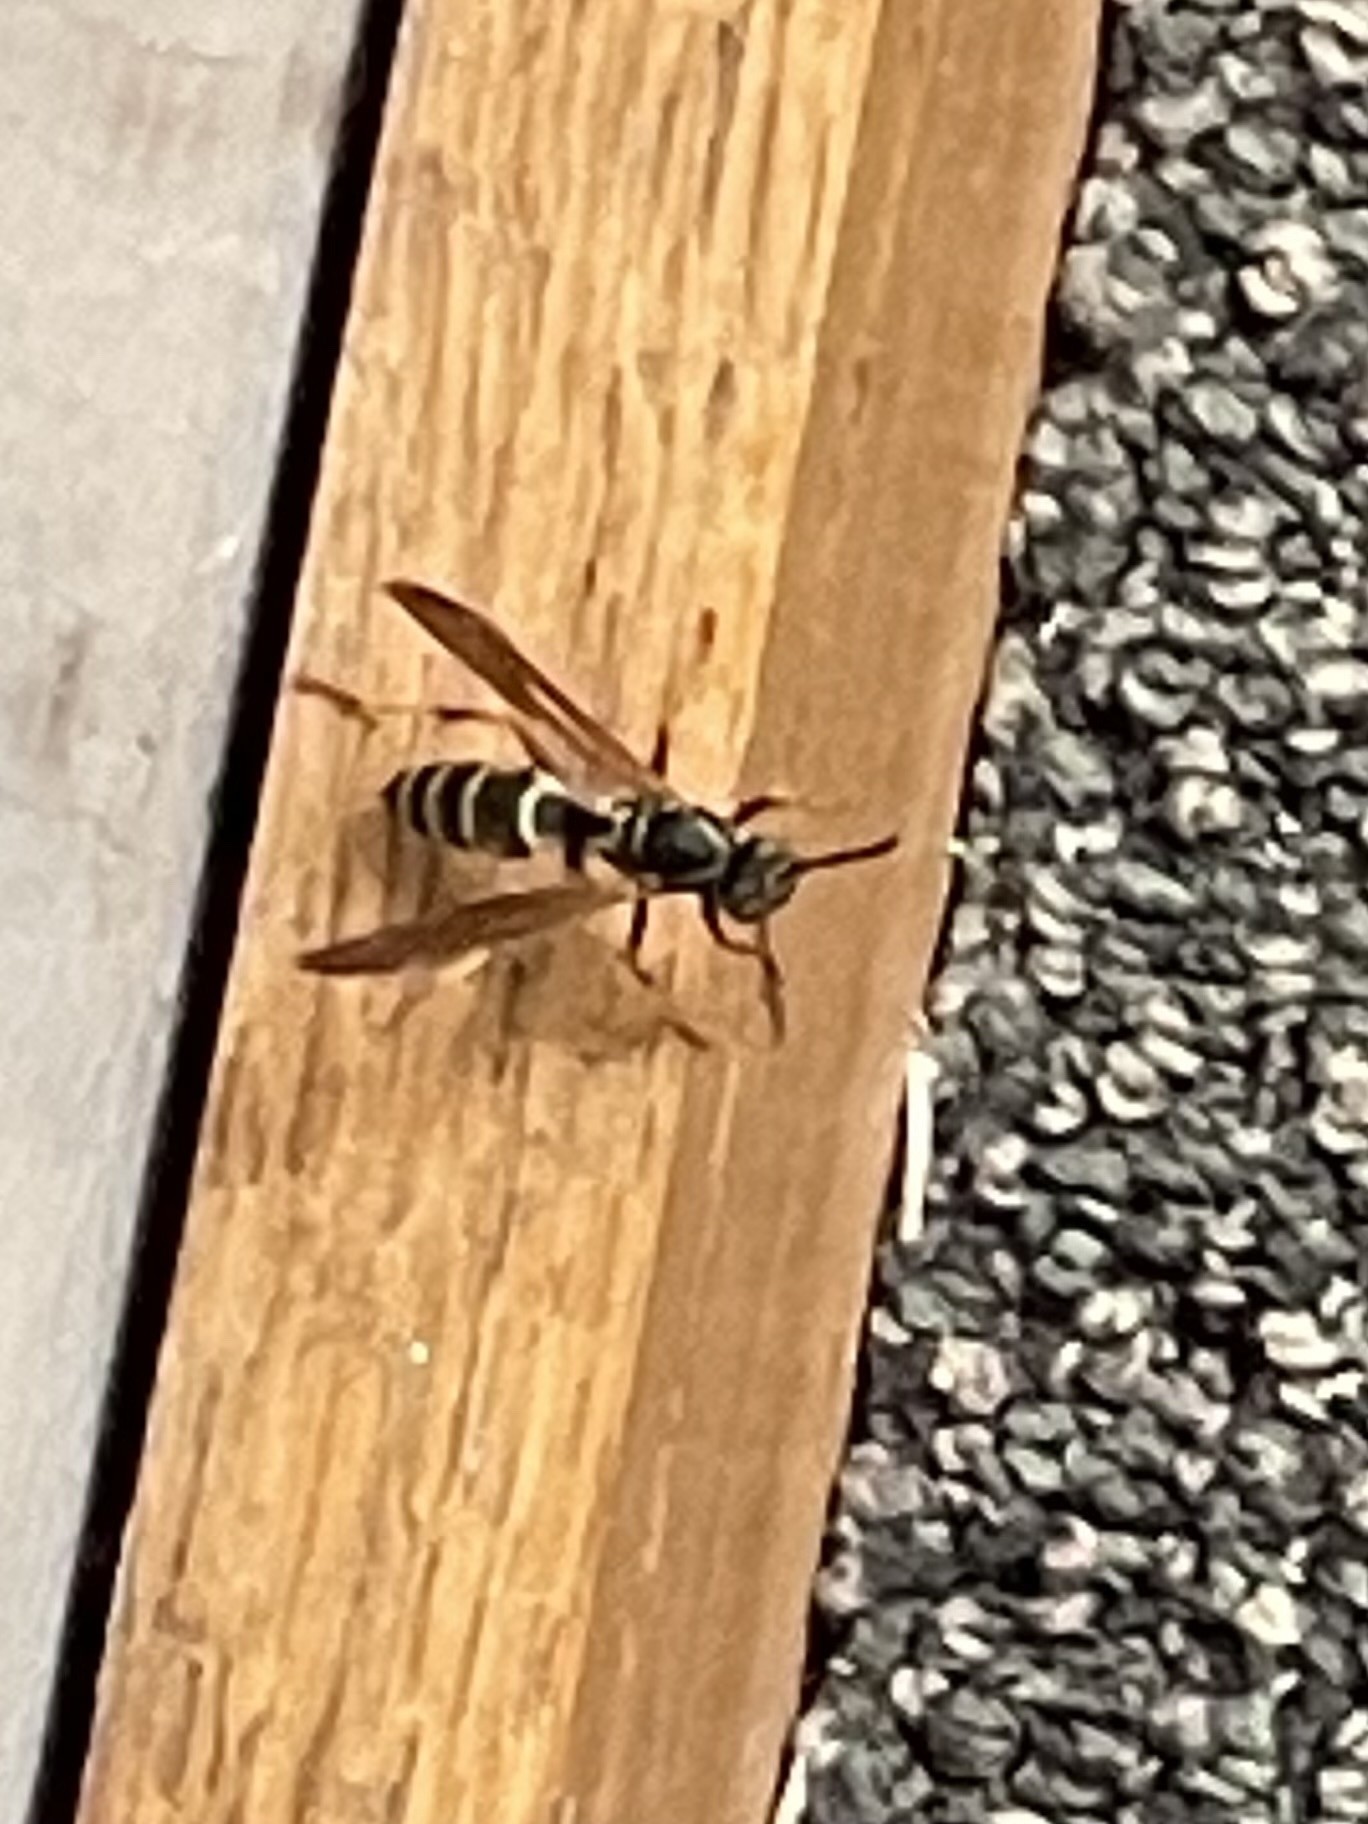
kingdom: Animalia
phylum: Arthropoda
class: Insecta
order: Hymenoptera
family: Eumenidae
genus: Polistes
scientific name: Polistes fuscatus
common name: Dark paper wasp
